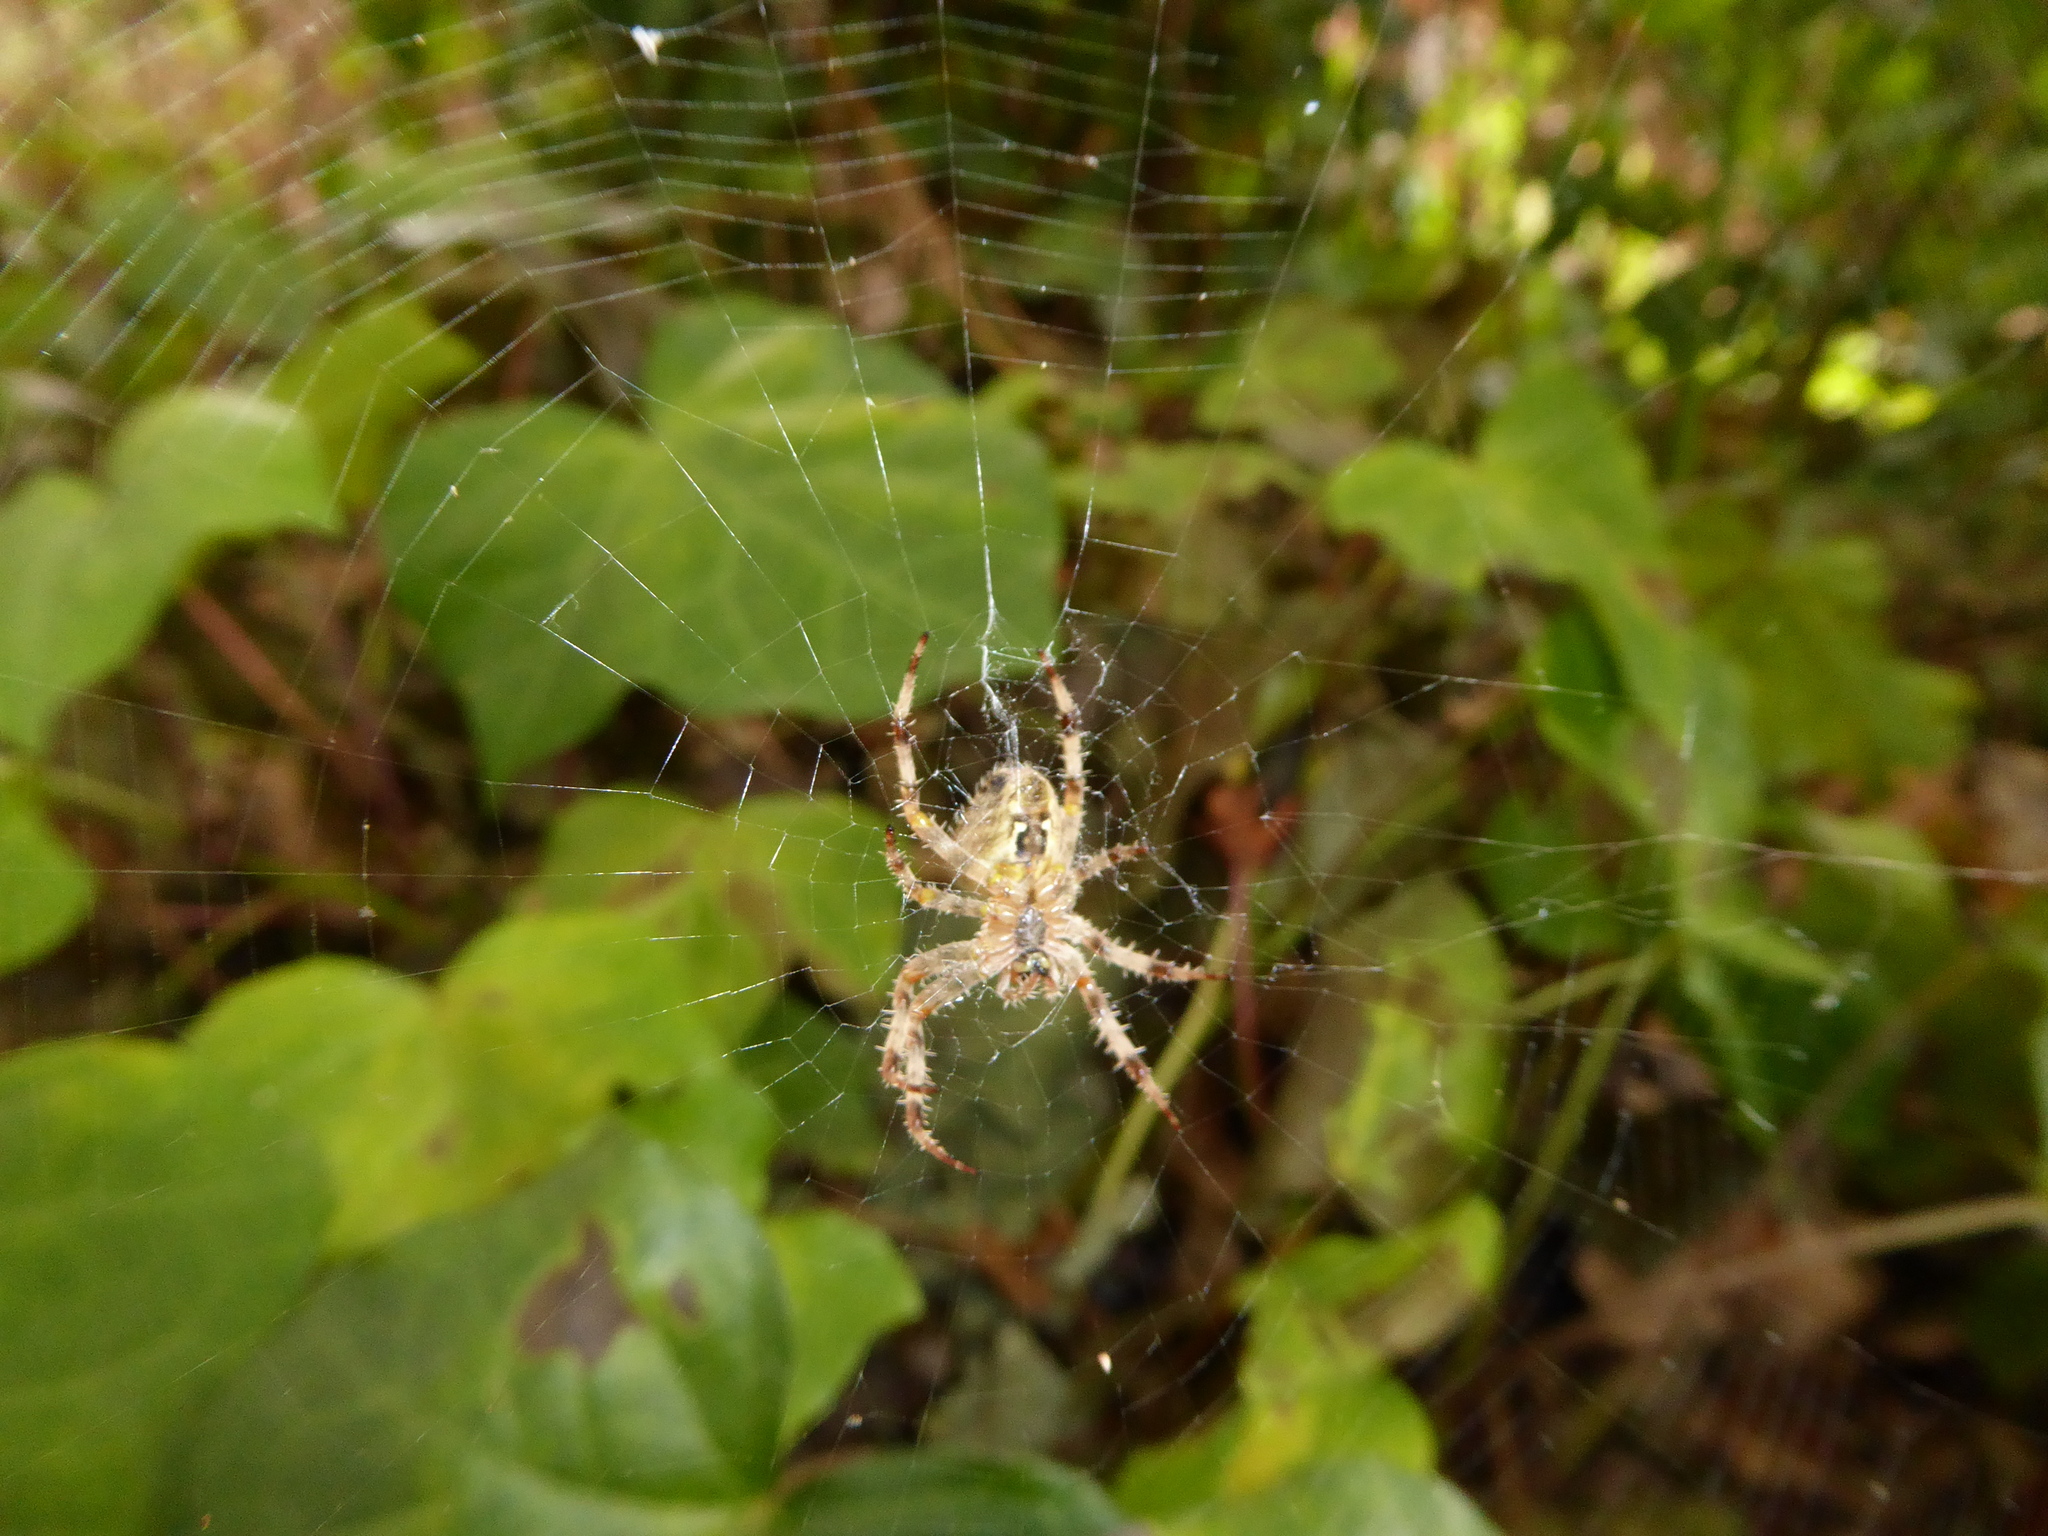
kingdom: Animalia
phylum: Arthropoda
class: Arachnida
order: Araneae
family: Araneidae
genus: Araneus
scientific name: Araneus diadematus
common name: Cross orbweaver
